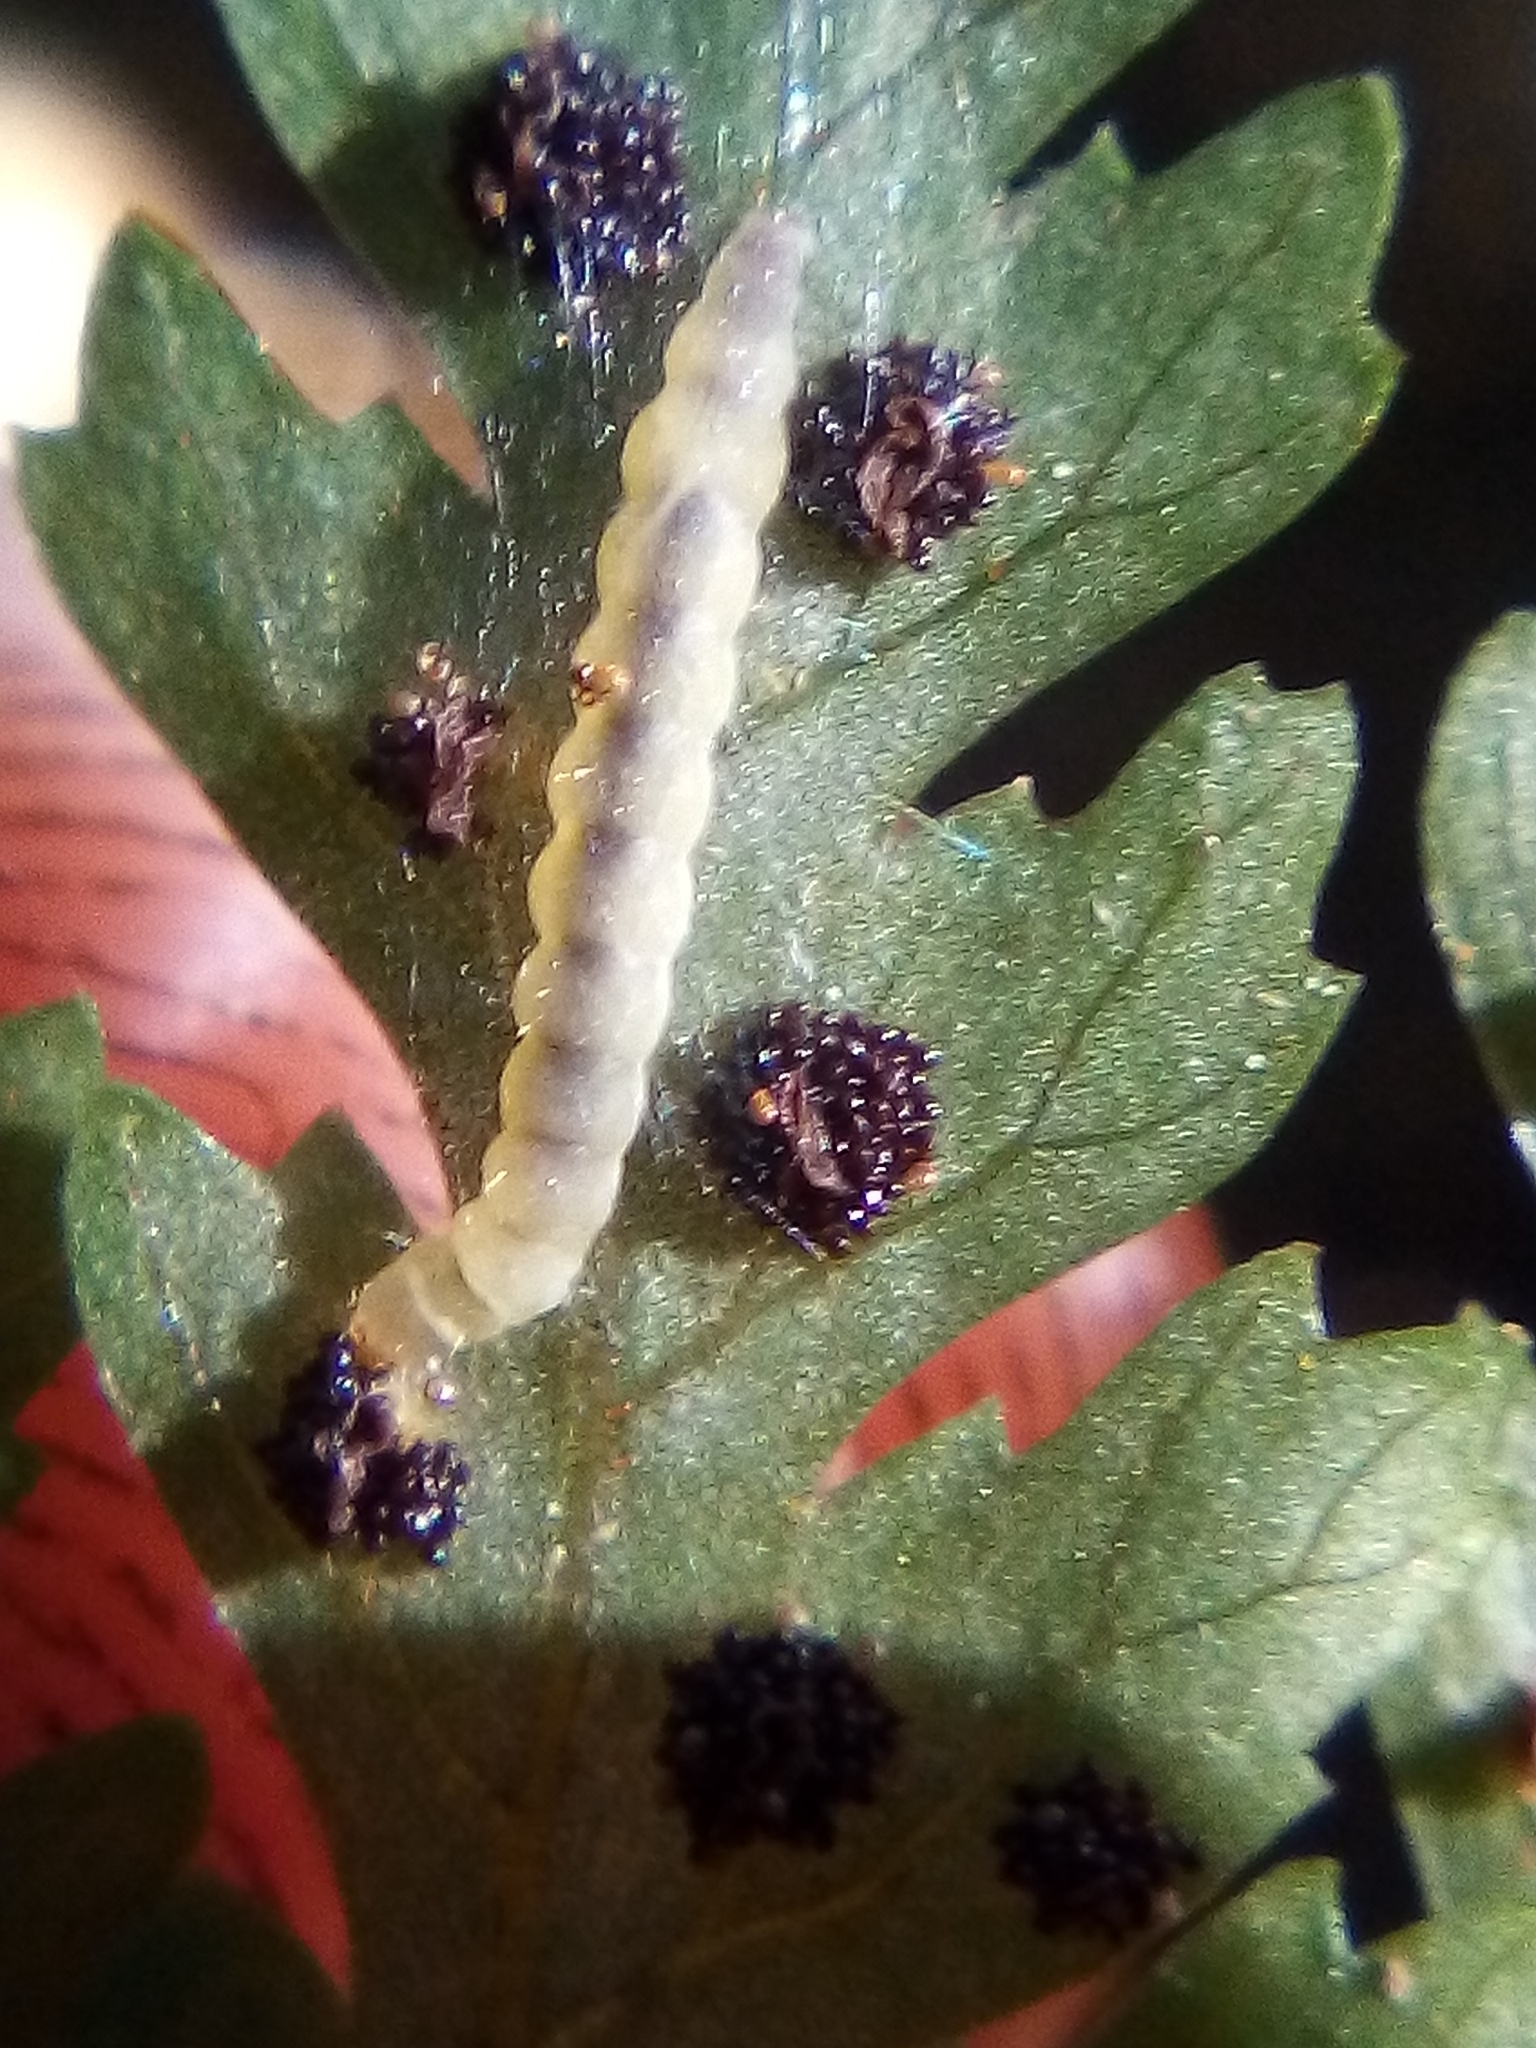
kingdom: Animalia
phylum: Arthropoda
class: Insecta
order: Lepidoptera
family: Stathmopodidae
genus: Thylacosceles
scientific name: Thylacosceles acridomima
